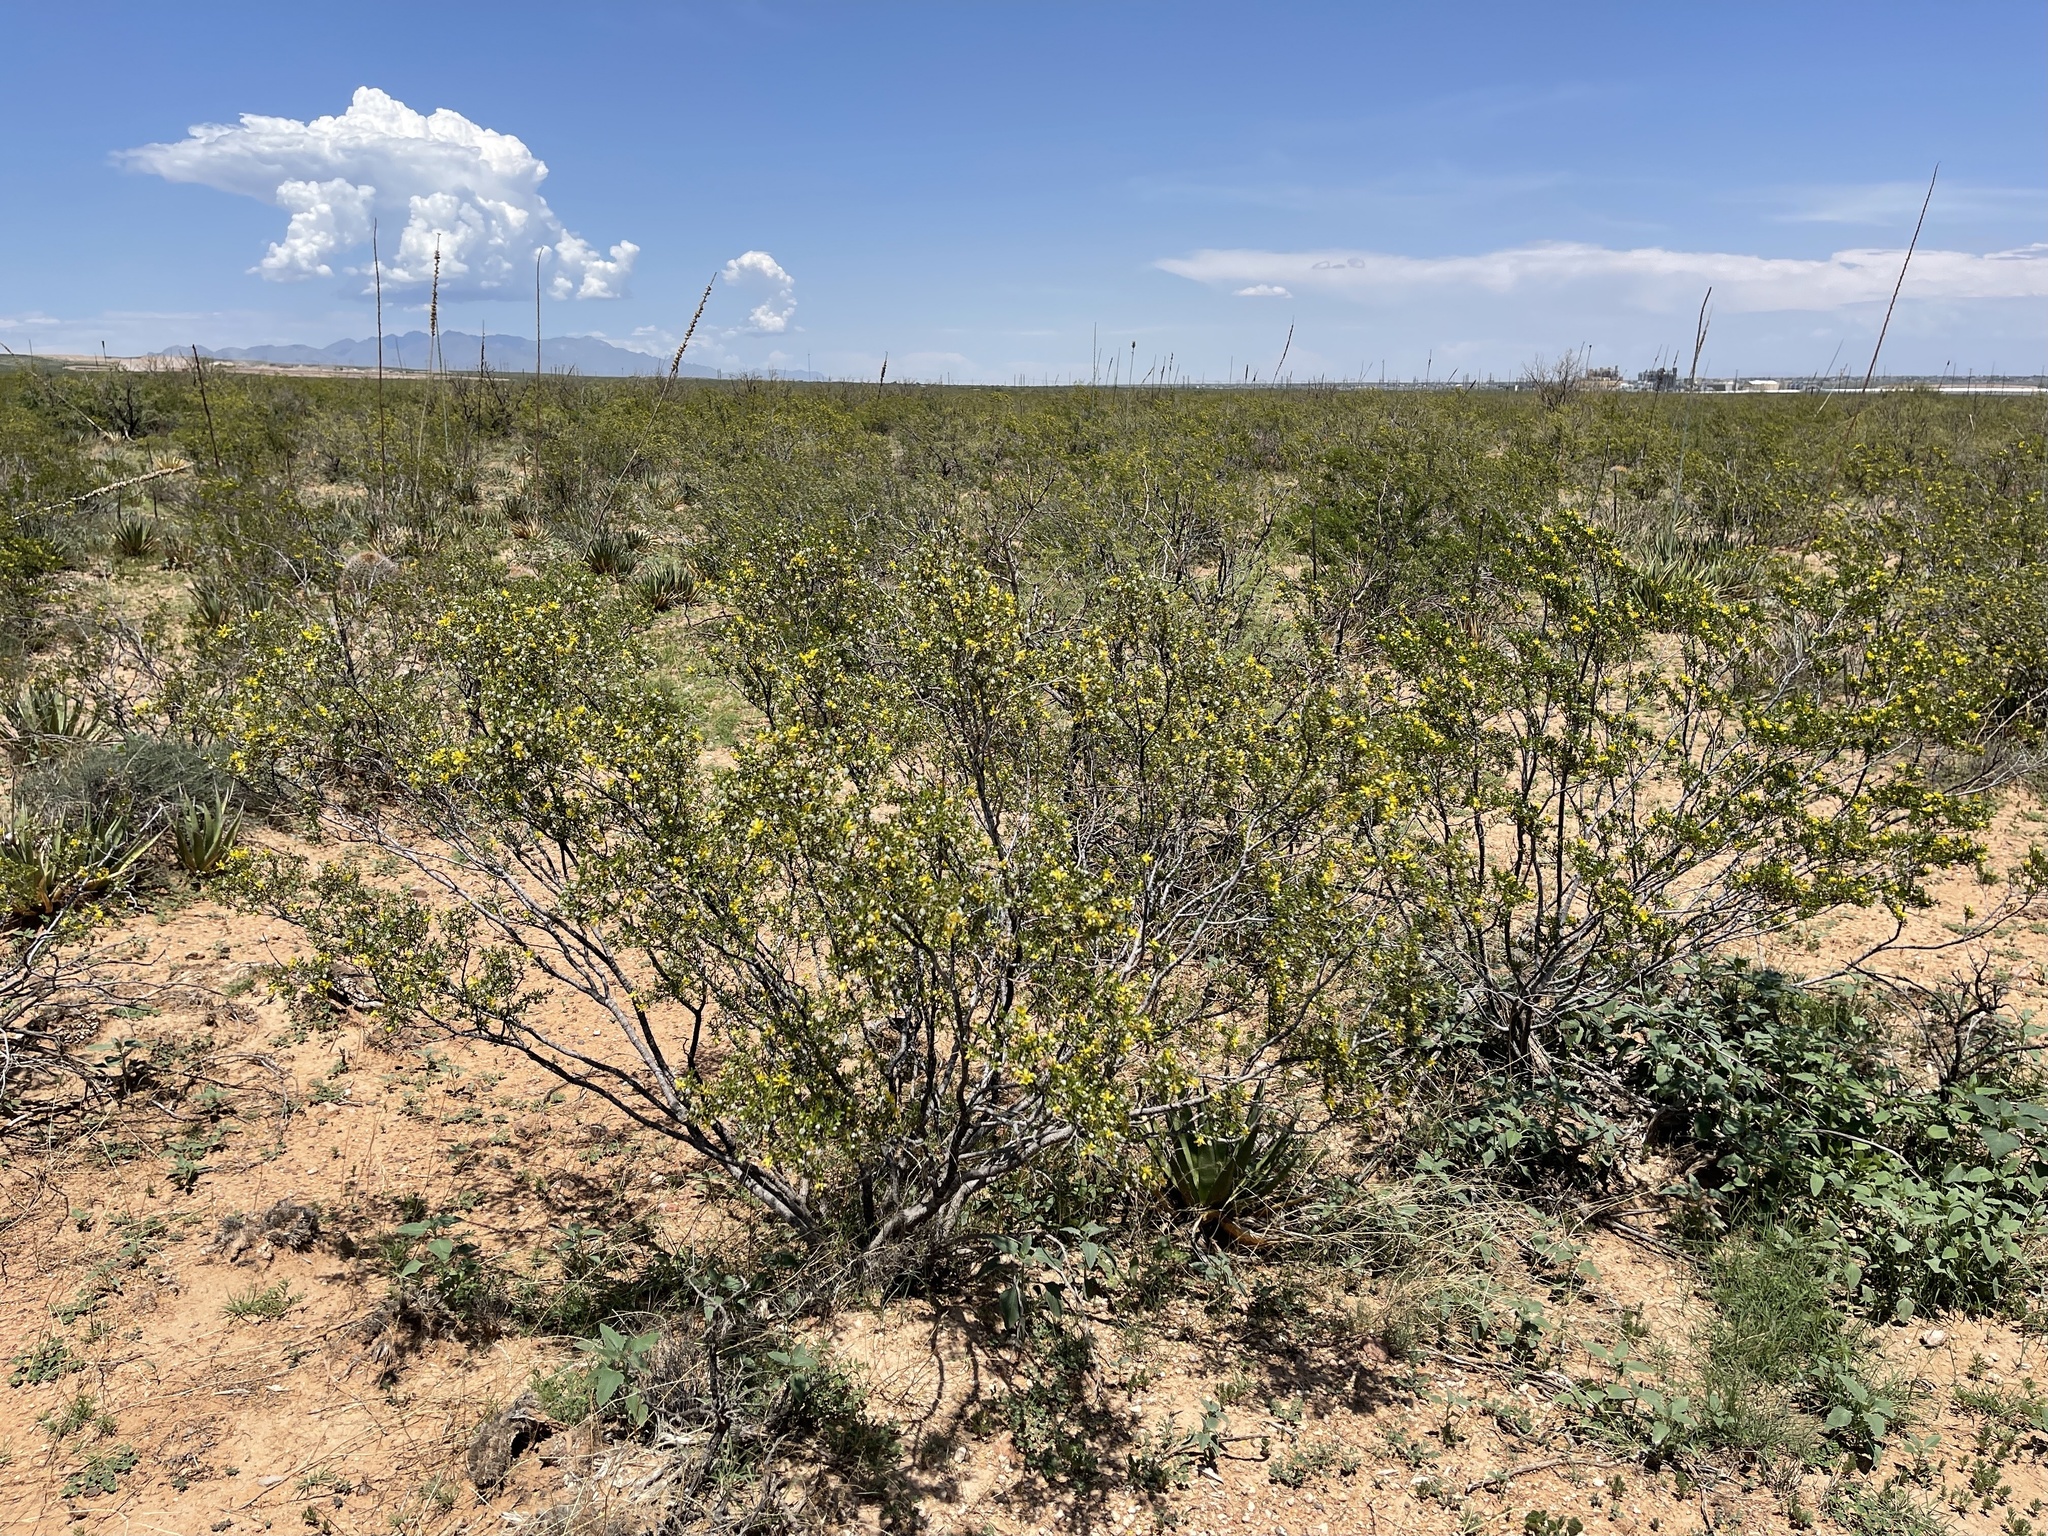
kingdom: Plantae
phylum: Tracheophyta
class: Magnoliopsida
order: Zygophyllales
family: Zygophyllaceae
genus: Larrea
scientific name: Larrea tridentata
